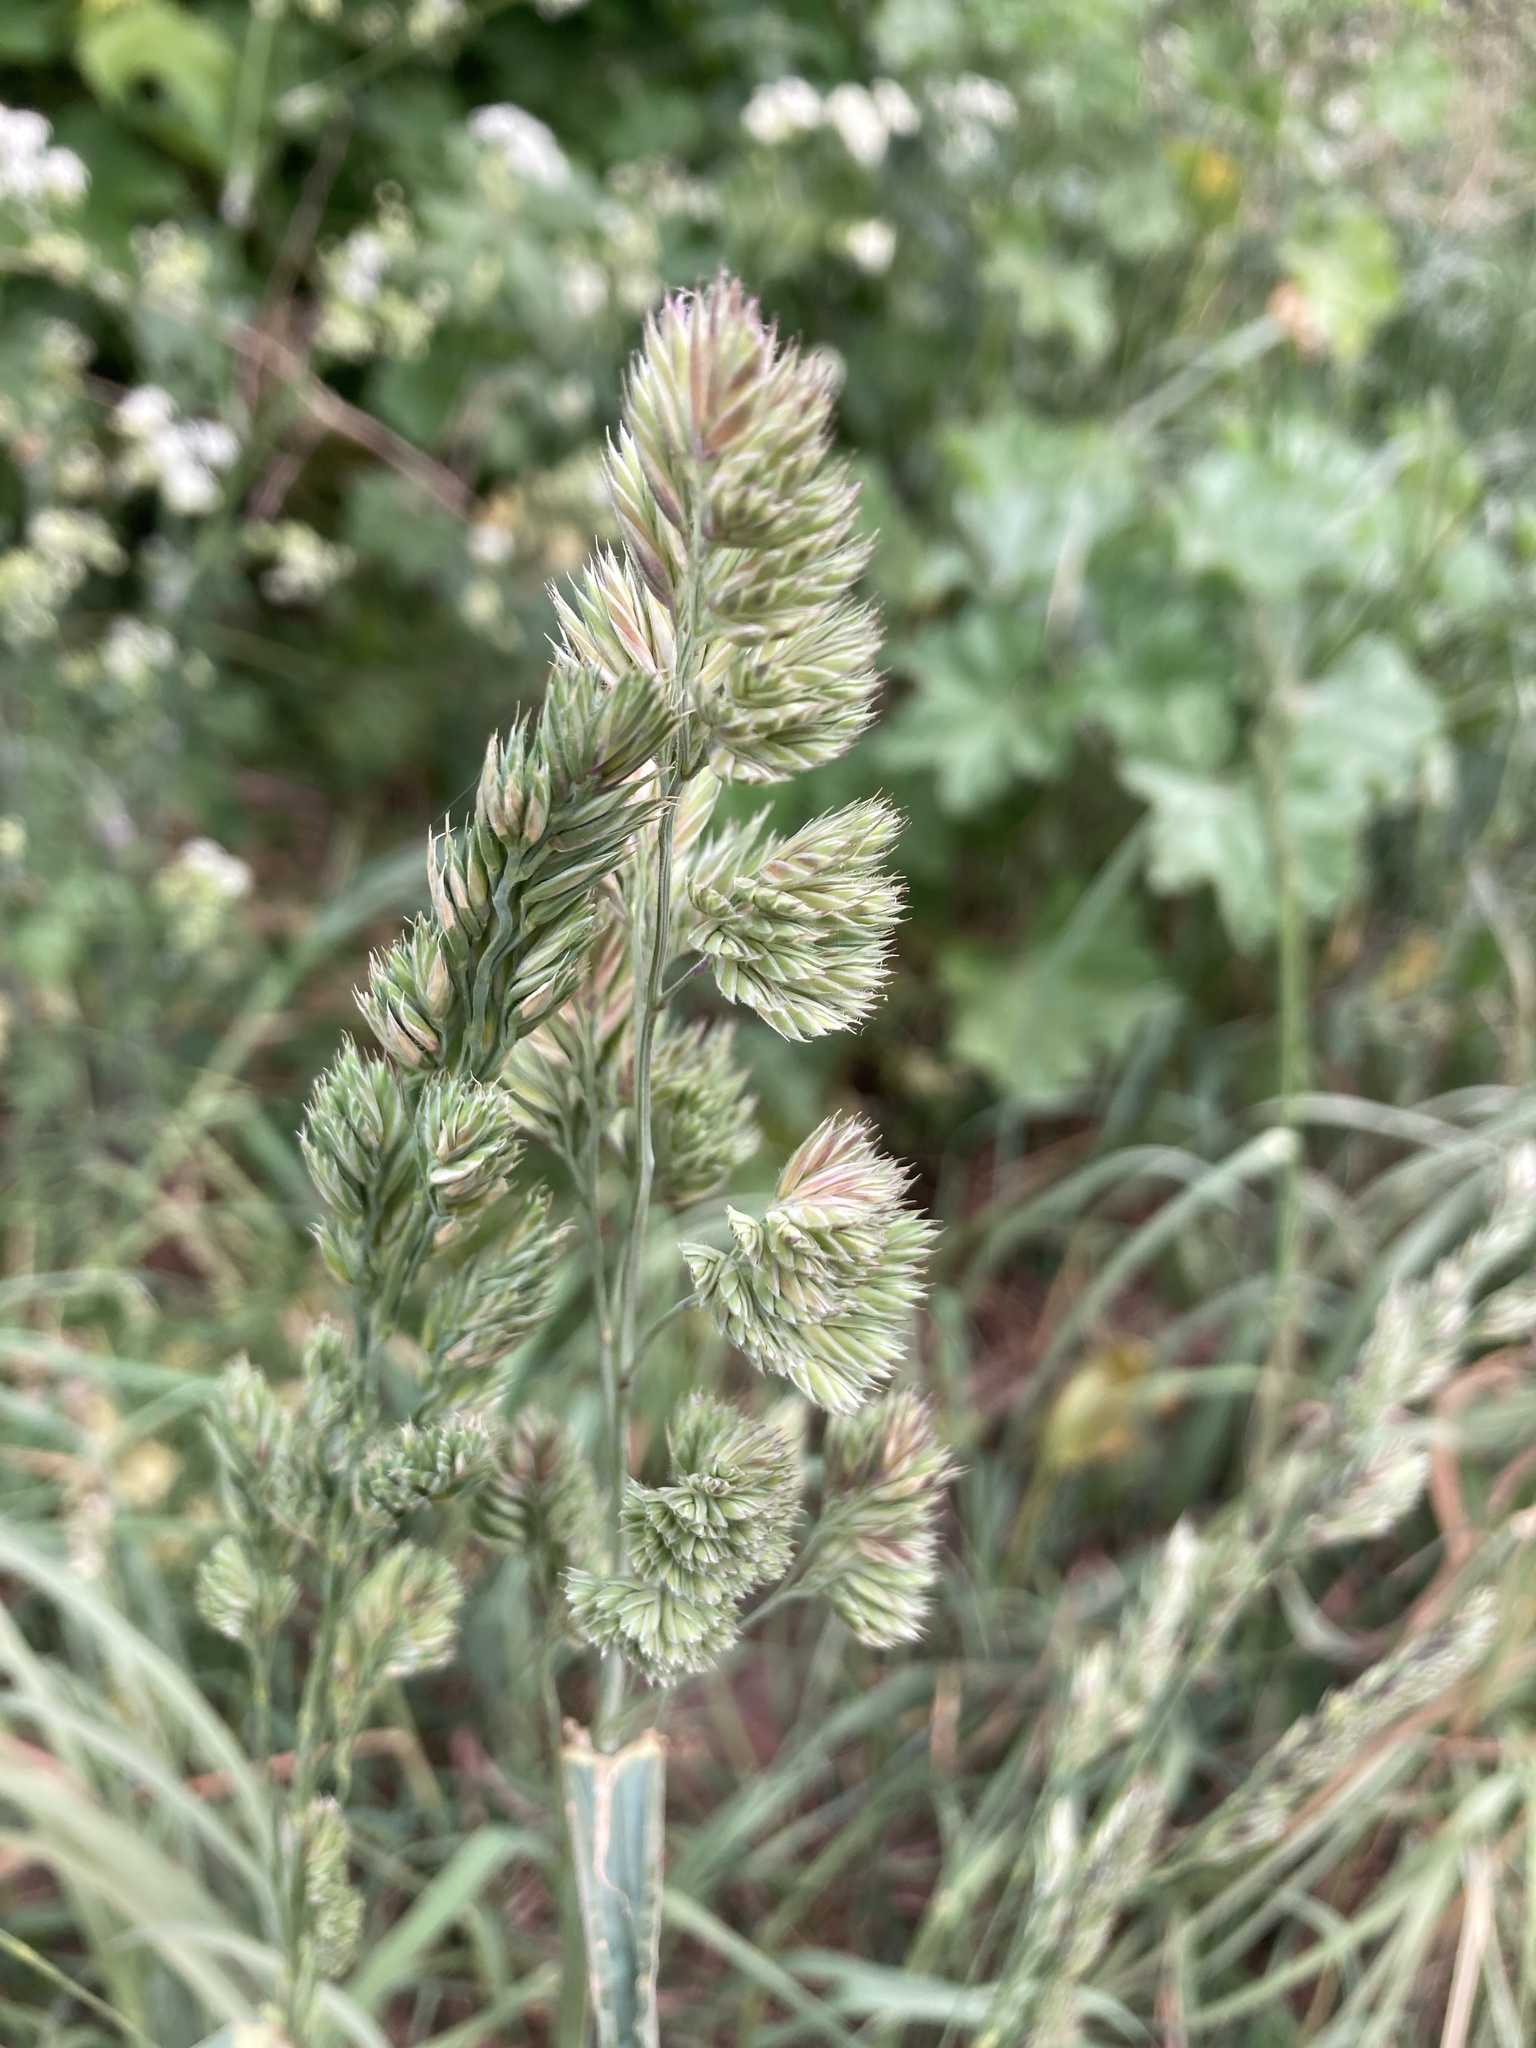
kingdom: Plantae
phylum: Tracheophyta
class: Liliopsida
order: Poales
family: Poaceae
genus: Dactylis
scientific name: Dactylis glomerata
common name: Orchardgrass
